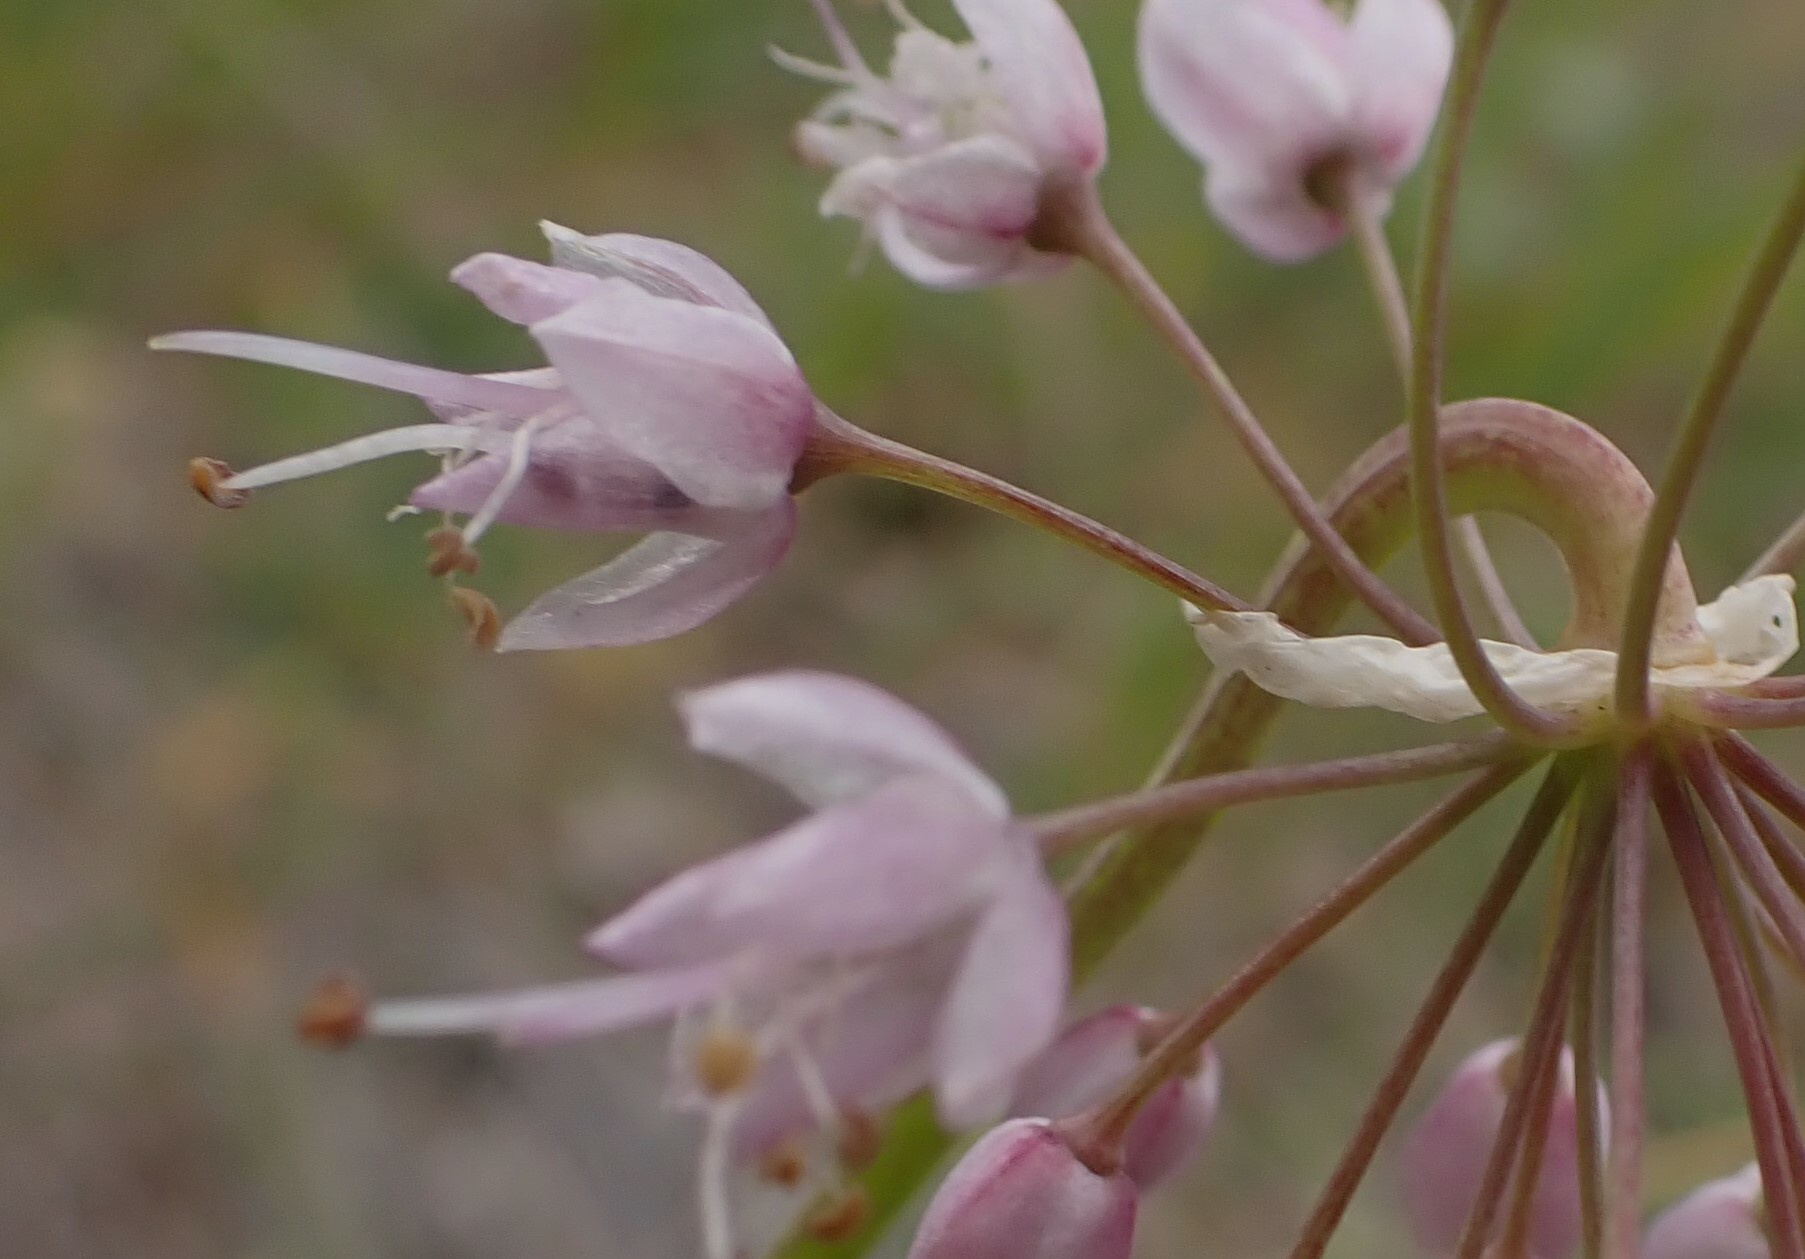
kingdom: Plantae
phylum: Tracheophyta
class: Liliopsida
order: Asparagales
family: Amaryllidaceae
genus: Allium
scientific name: Allium cernuum
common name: Nodding onion
